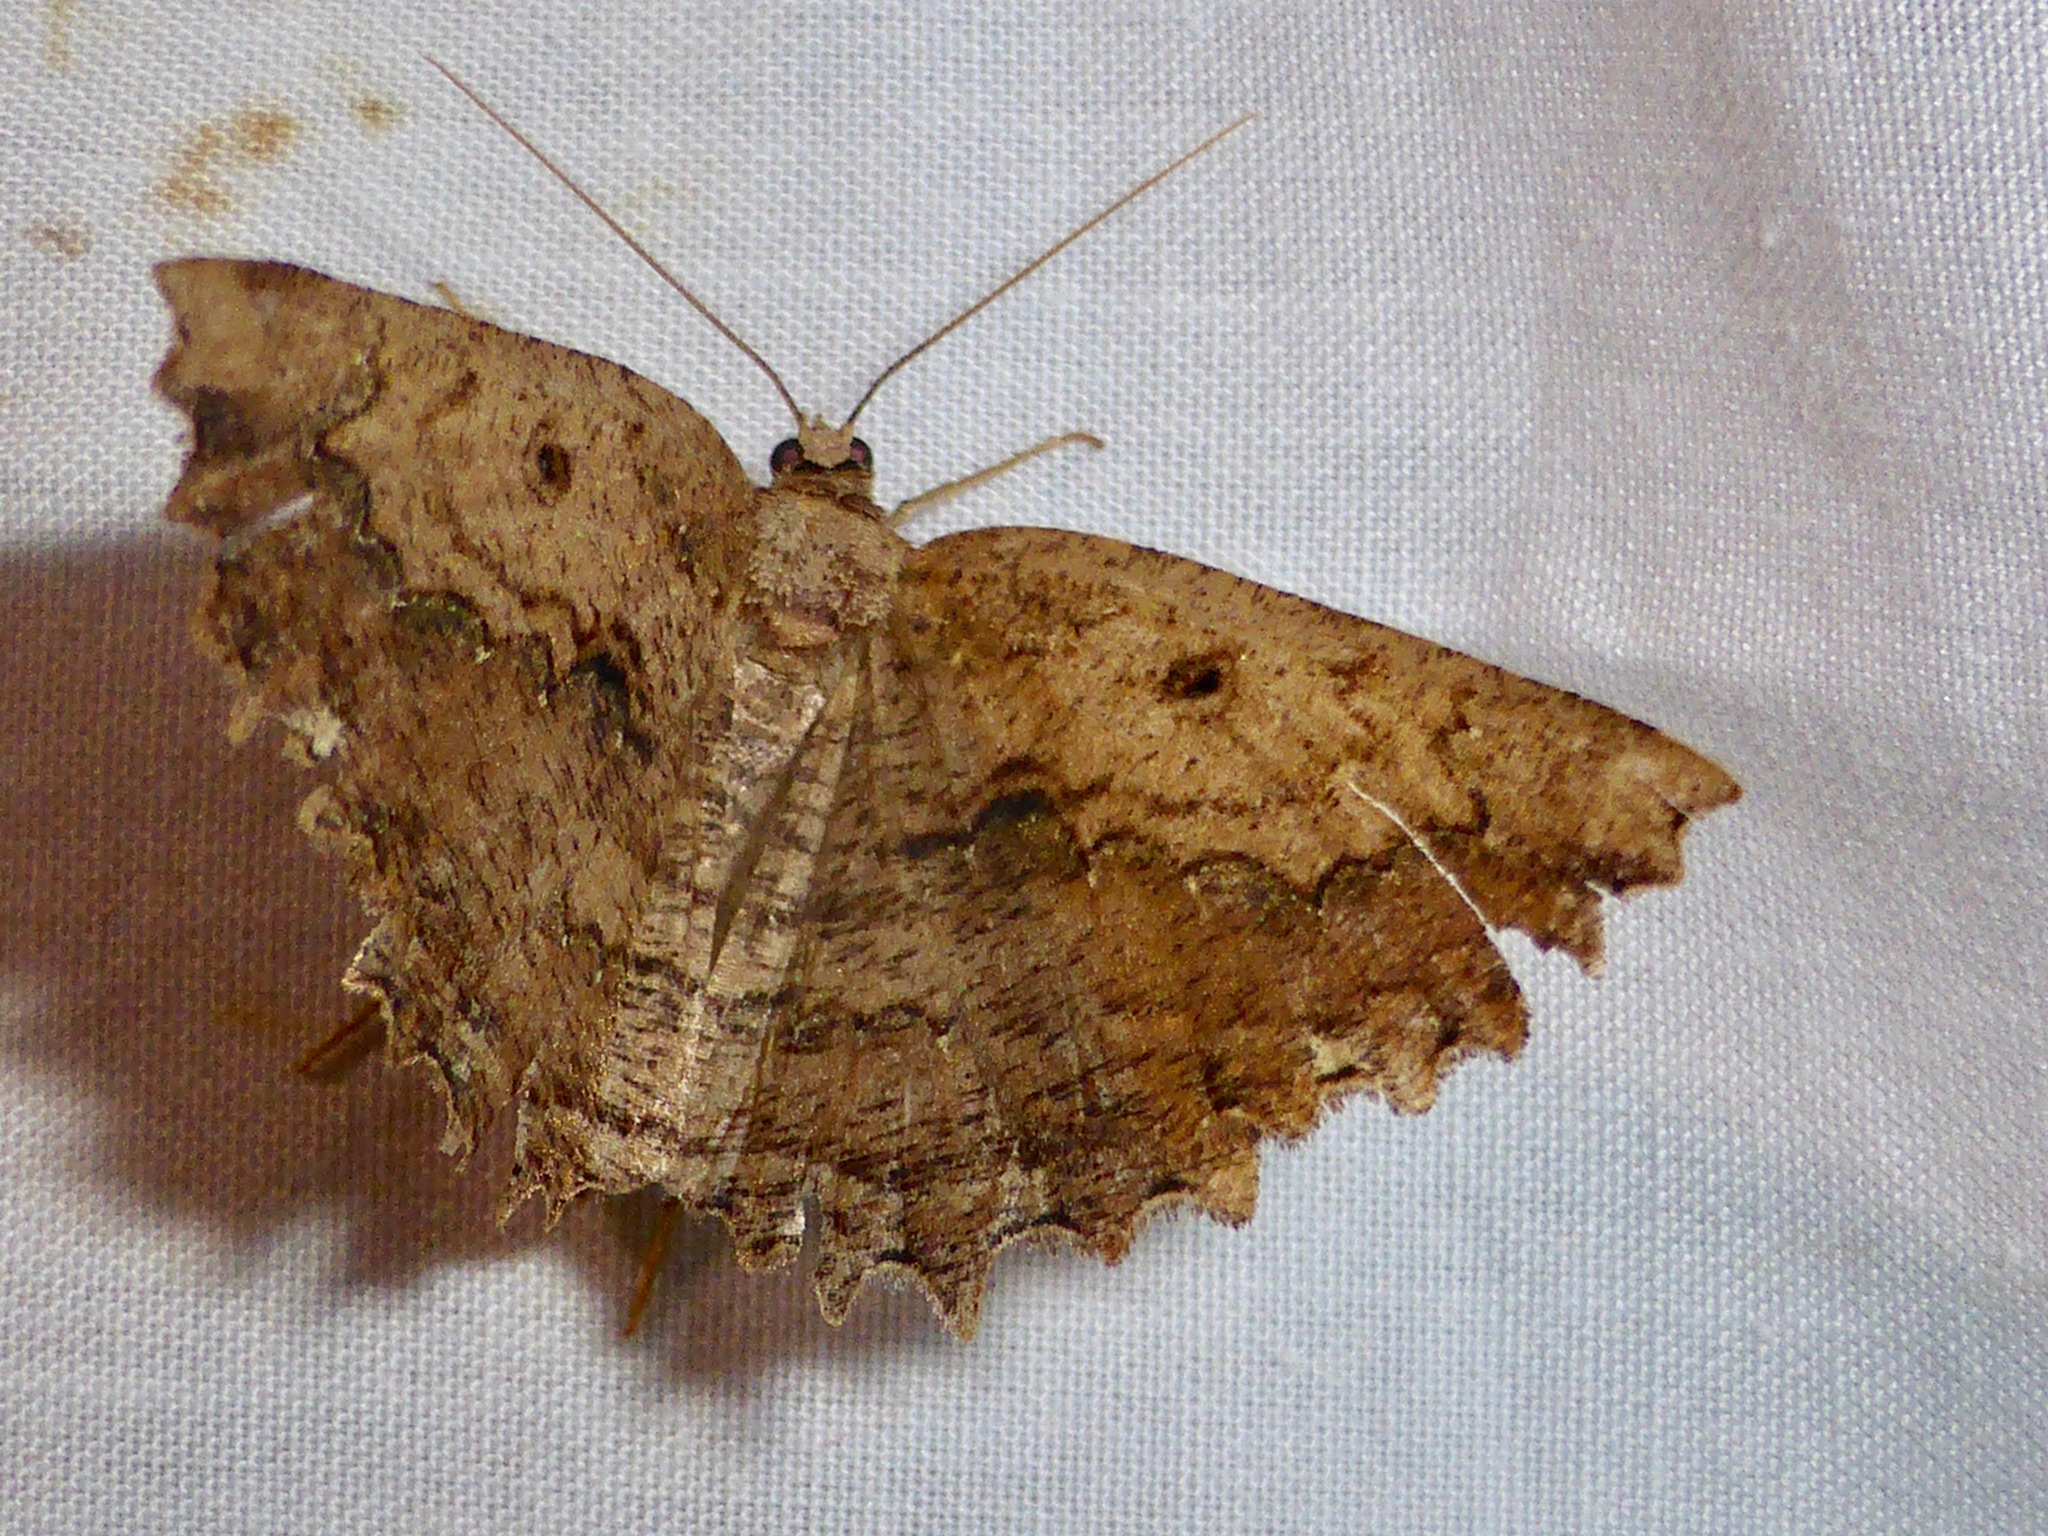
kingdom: Animalia
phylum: Arthropoda
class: Insecta
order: Lepidoptera
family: Geometridae
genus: Gellonia
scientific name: Gellonia pannularia
